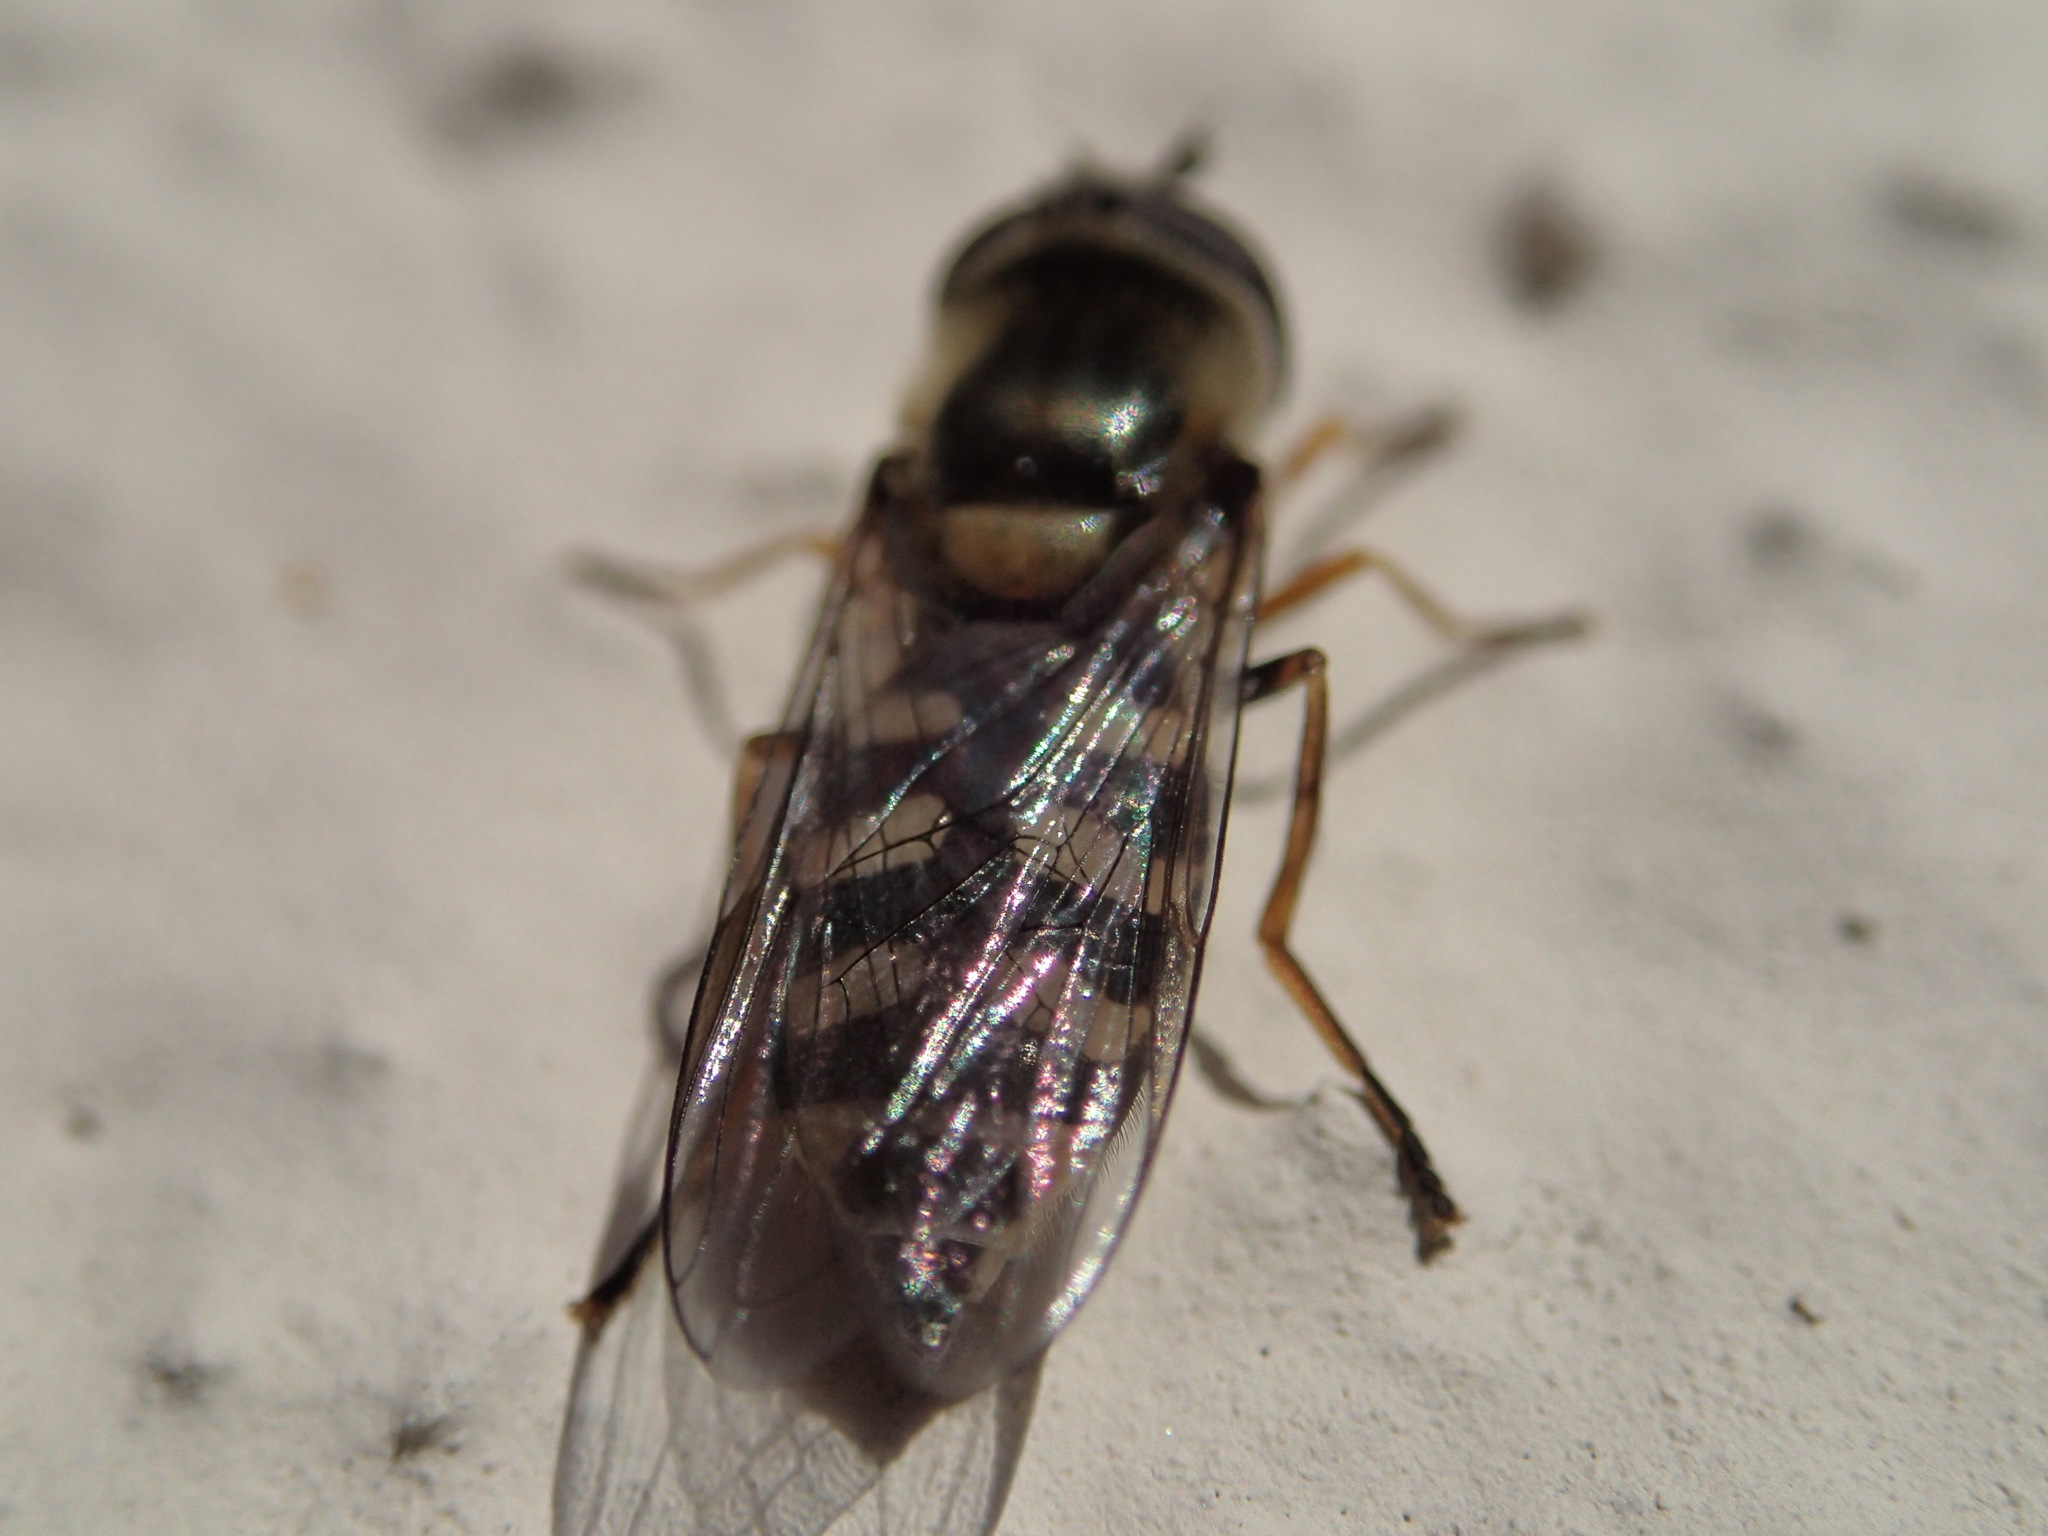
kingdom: Animalia
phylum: Arthropoda
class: Insecta
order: Diptera
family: Syrphidae
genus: Eupeodes
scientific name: Eupeodes corollae
